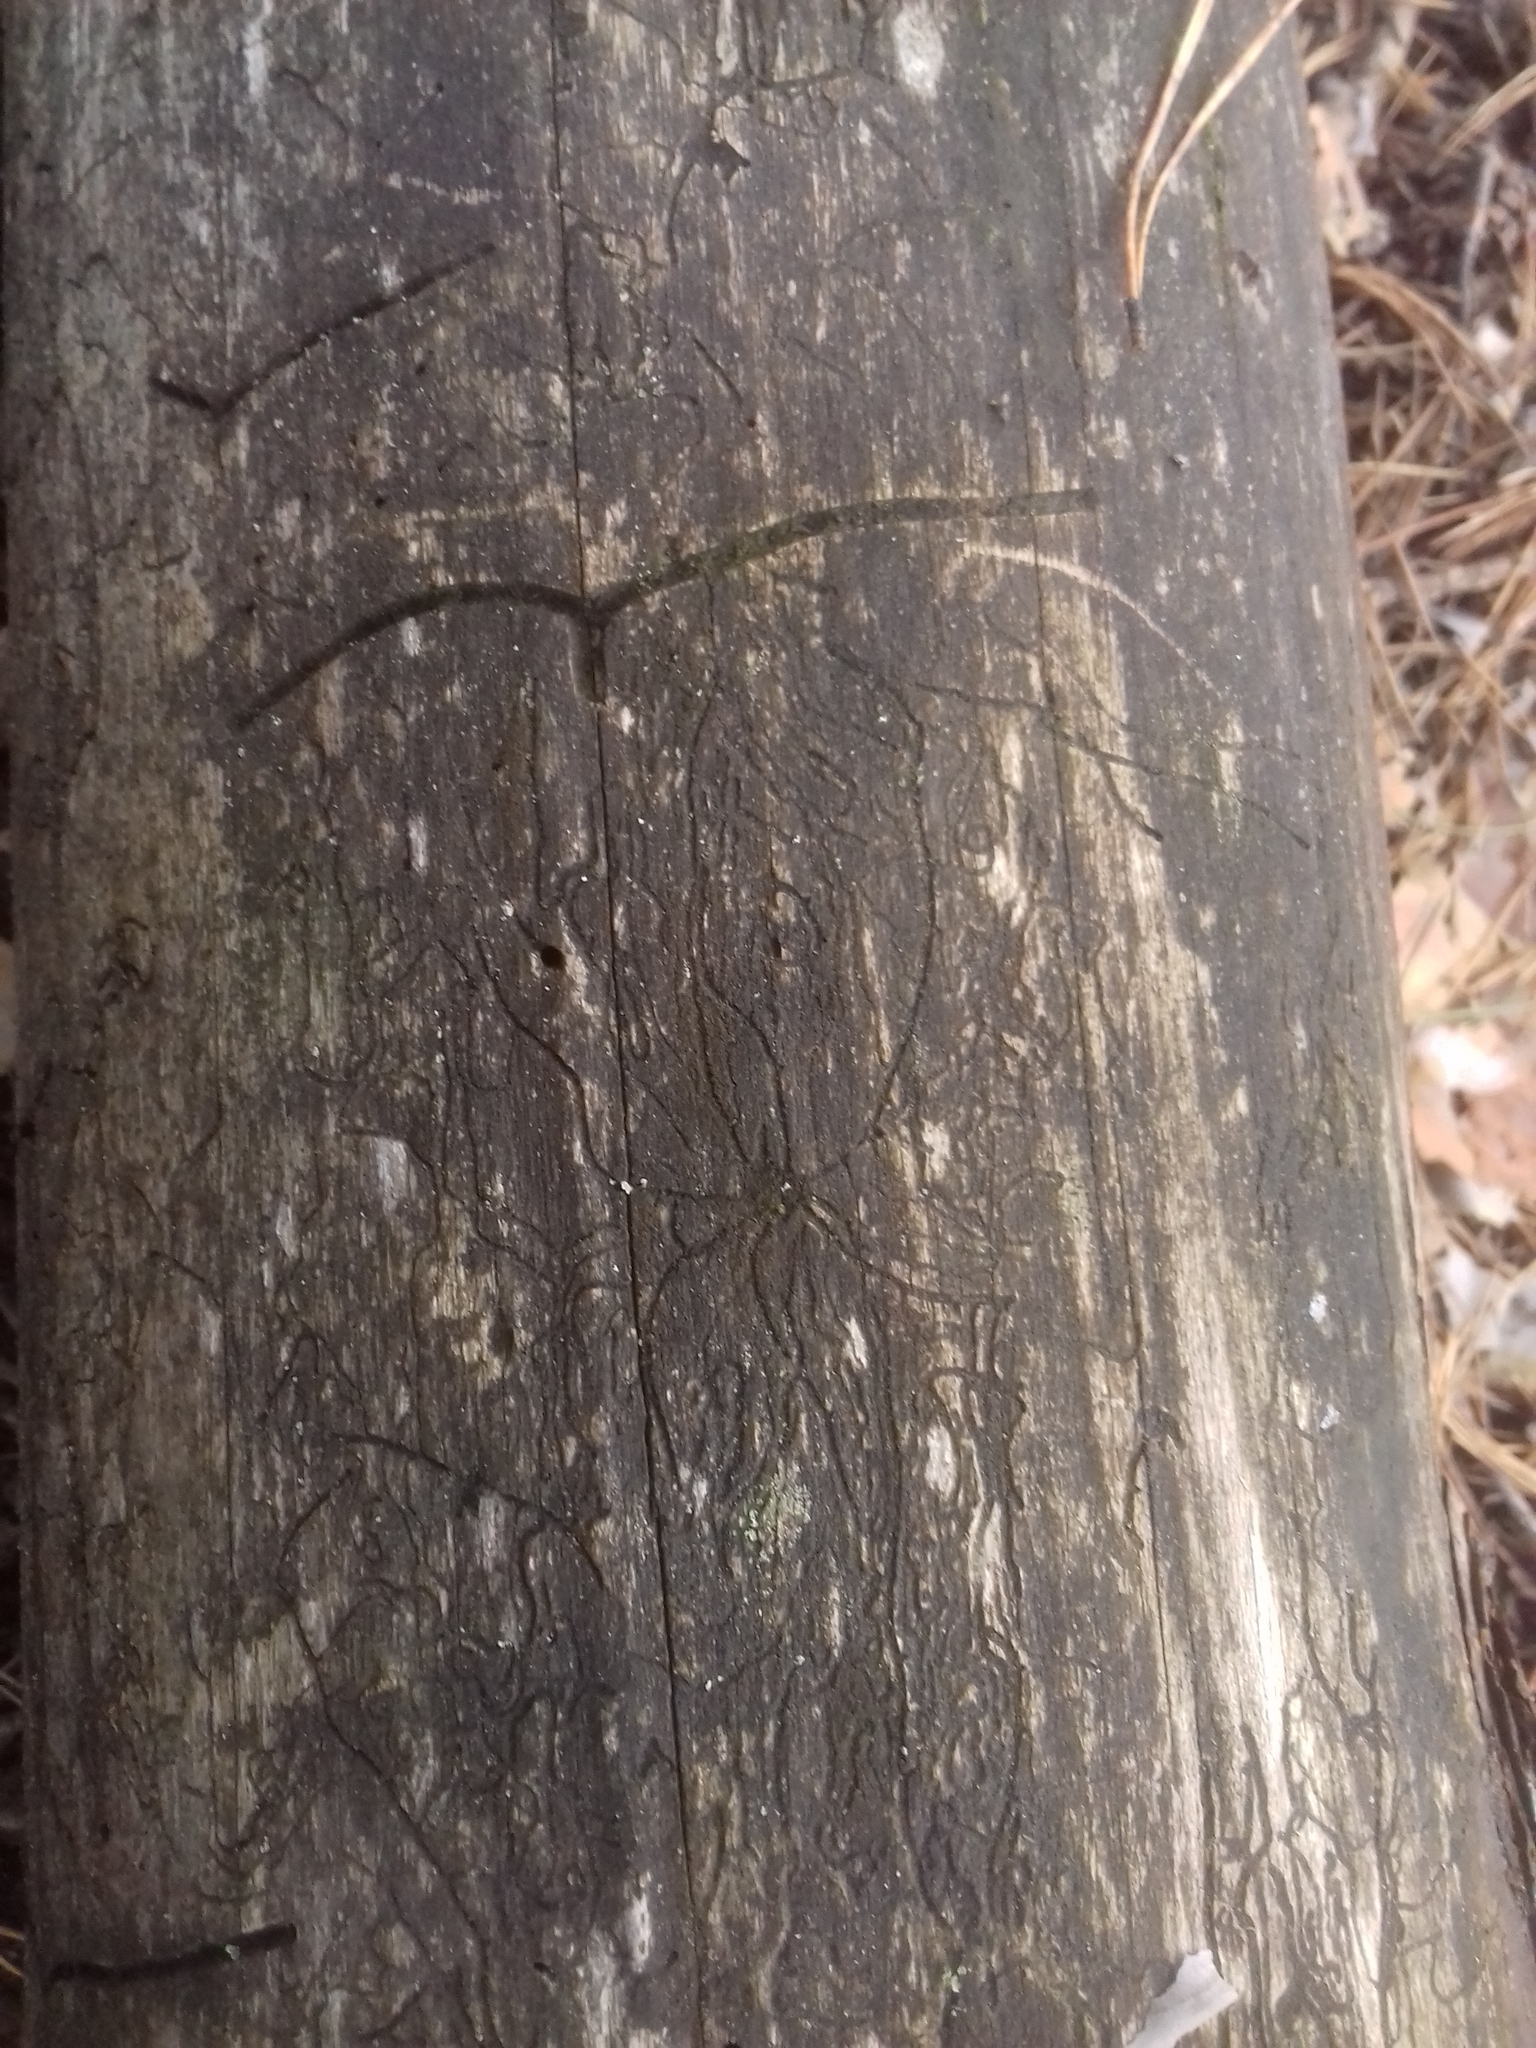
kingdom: Animalia
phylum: Arthropoda
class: Insecta
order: Coleoptera
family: Curculionidae
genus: Tomicus
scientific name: Tomicus minor
